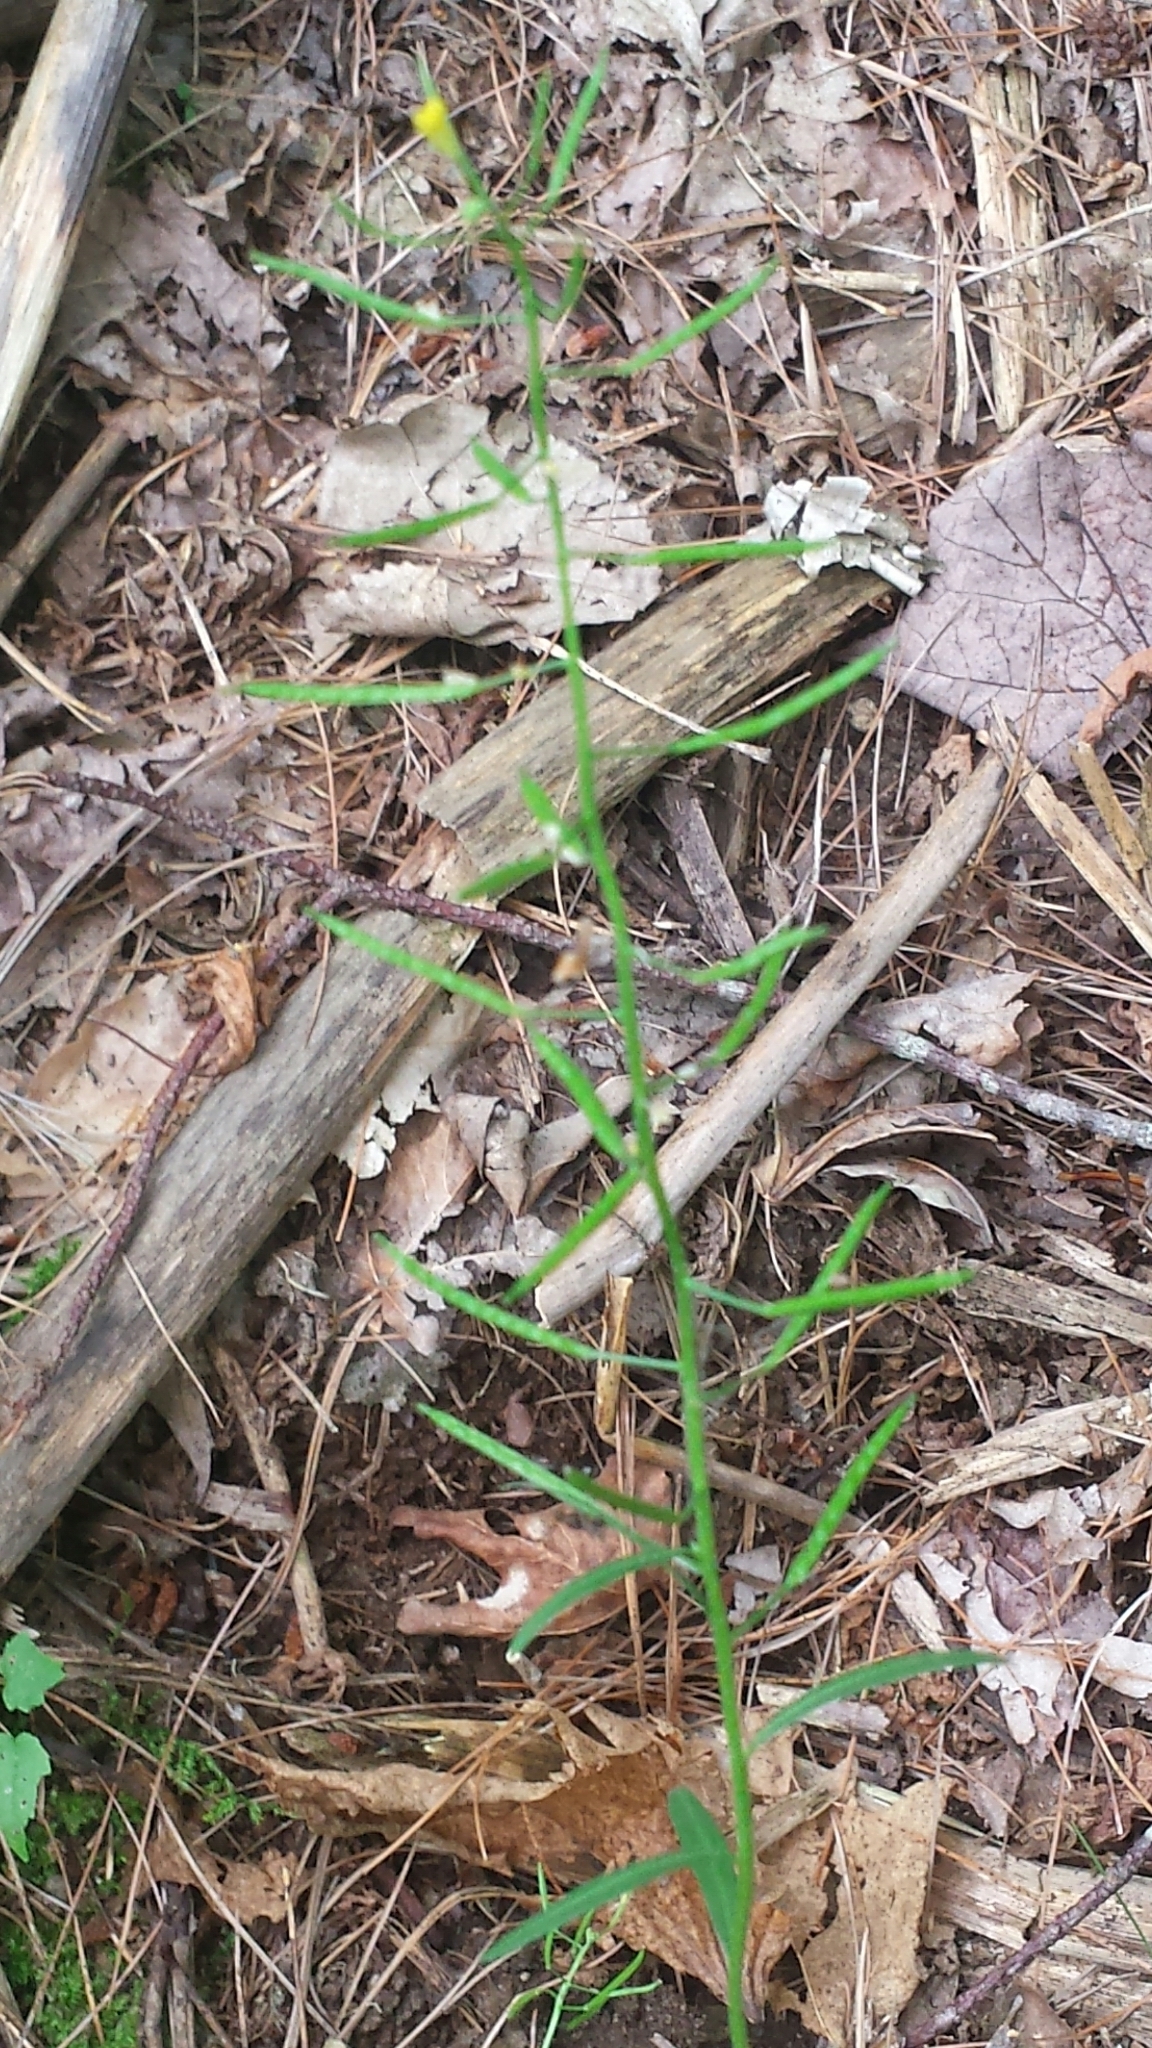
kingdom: Plantae
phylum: Tracheophyta
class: Magnoliopsida
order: Brassicales
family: Brassicaceae
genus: Erysimum
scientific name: Erysimum cheiranthoides
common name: Treacle mustard
